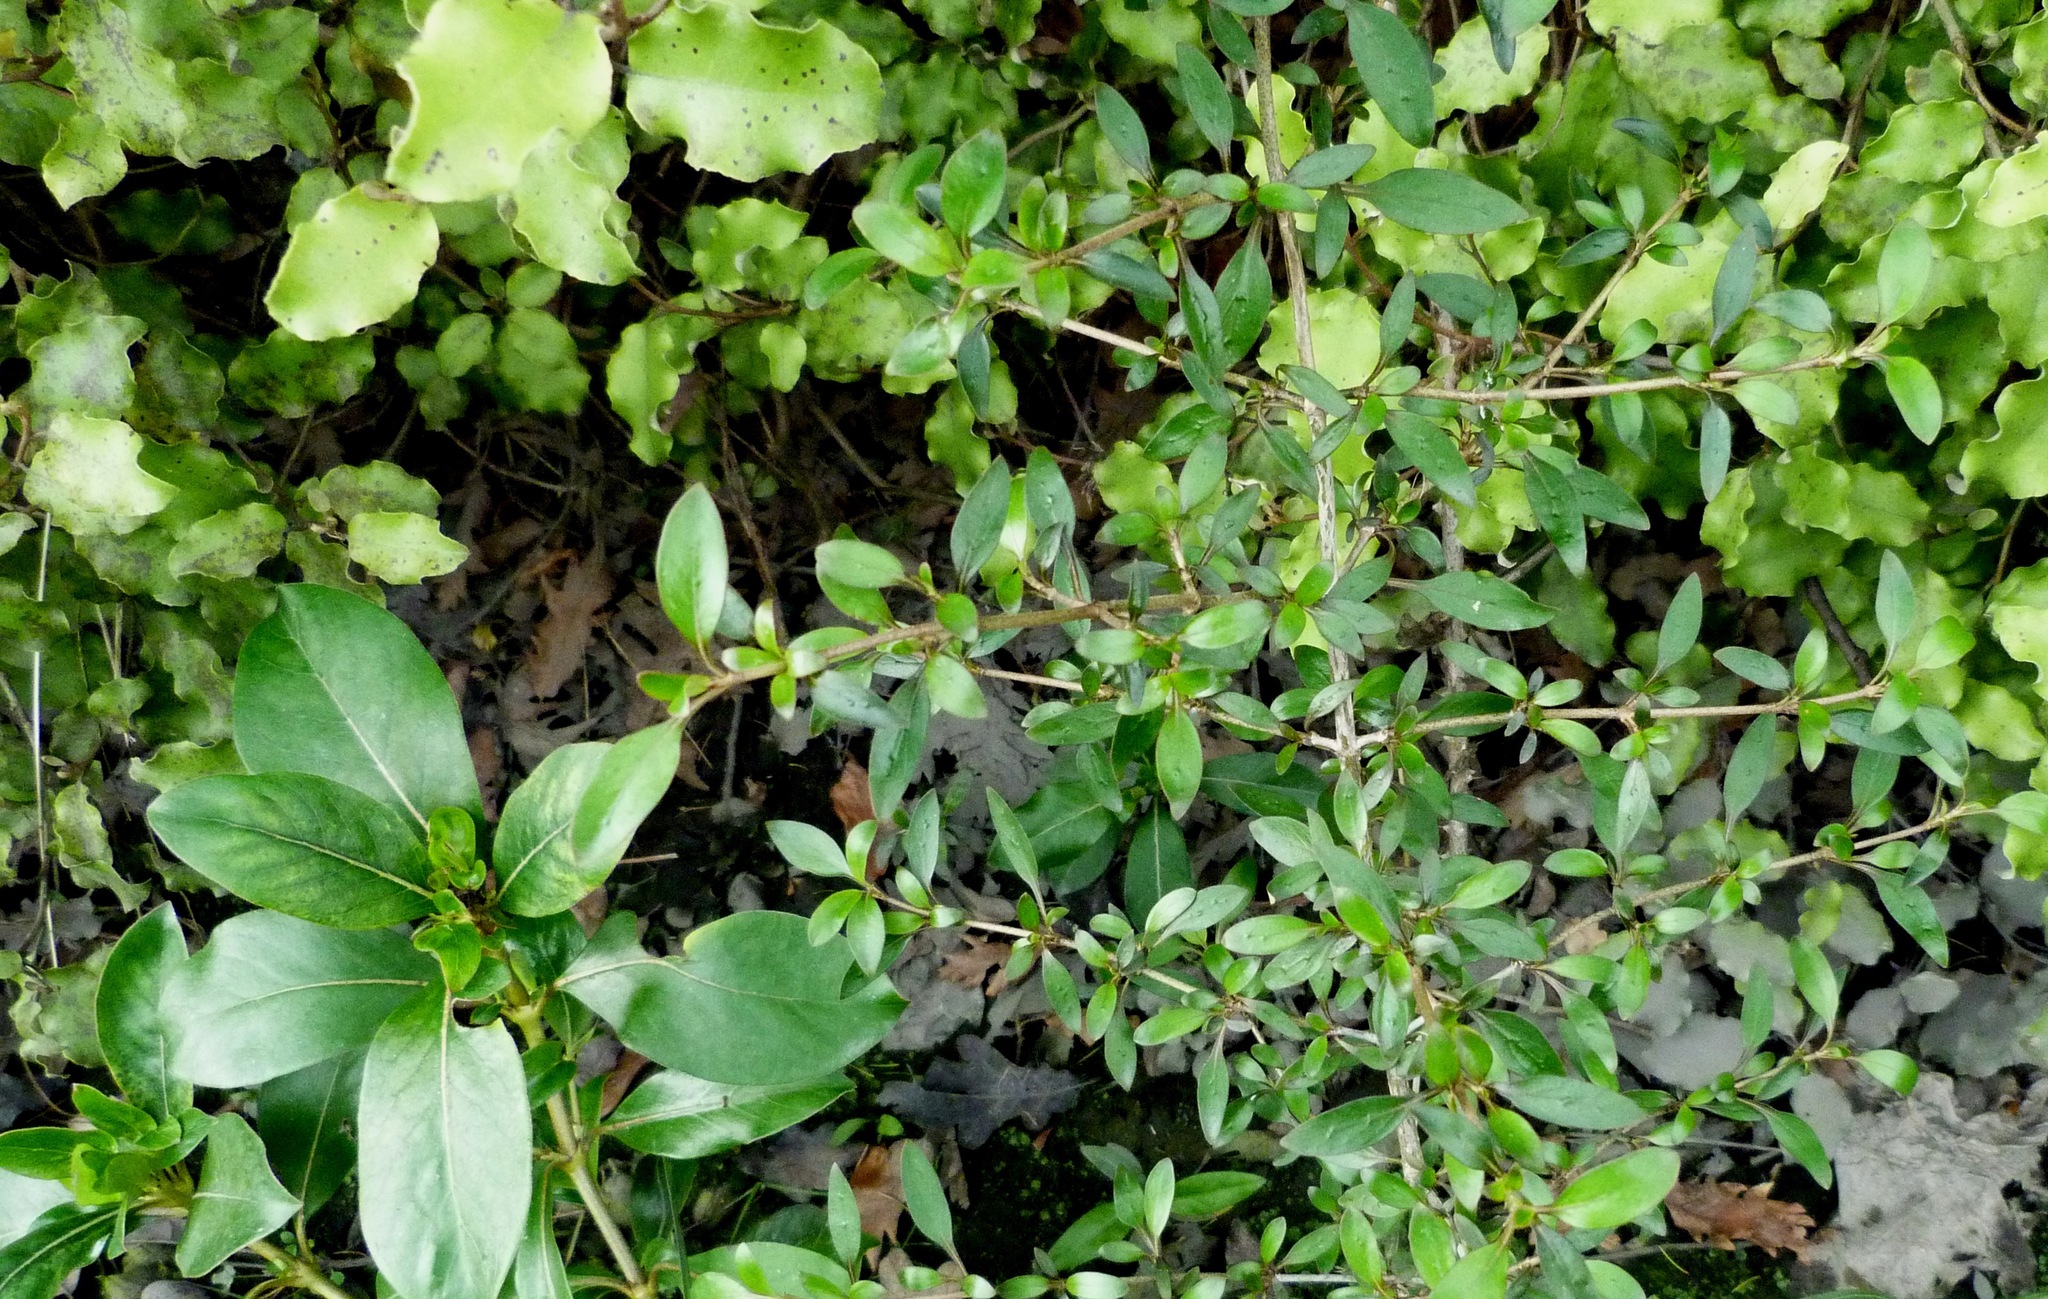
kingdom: Plantae
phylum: Tracheophyta
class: Magnoliopsida
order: Gentianales
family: Rubiaceae
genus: Coprosma
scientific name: Coprosma cunninghamii
